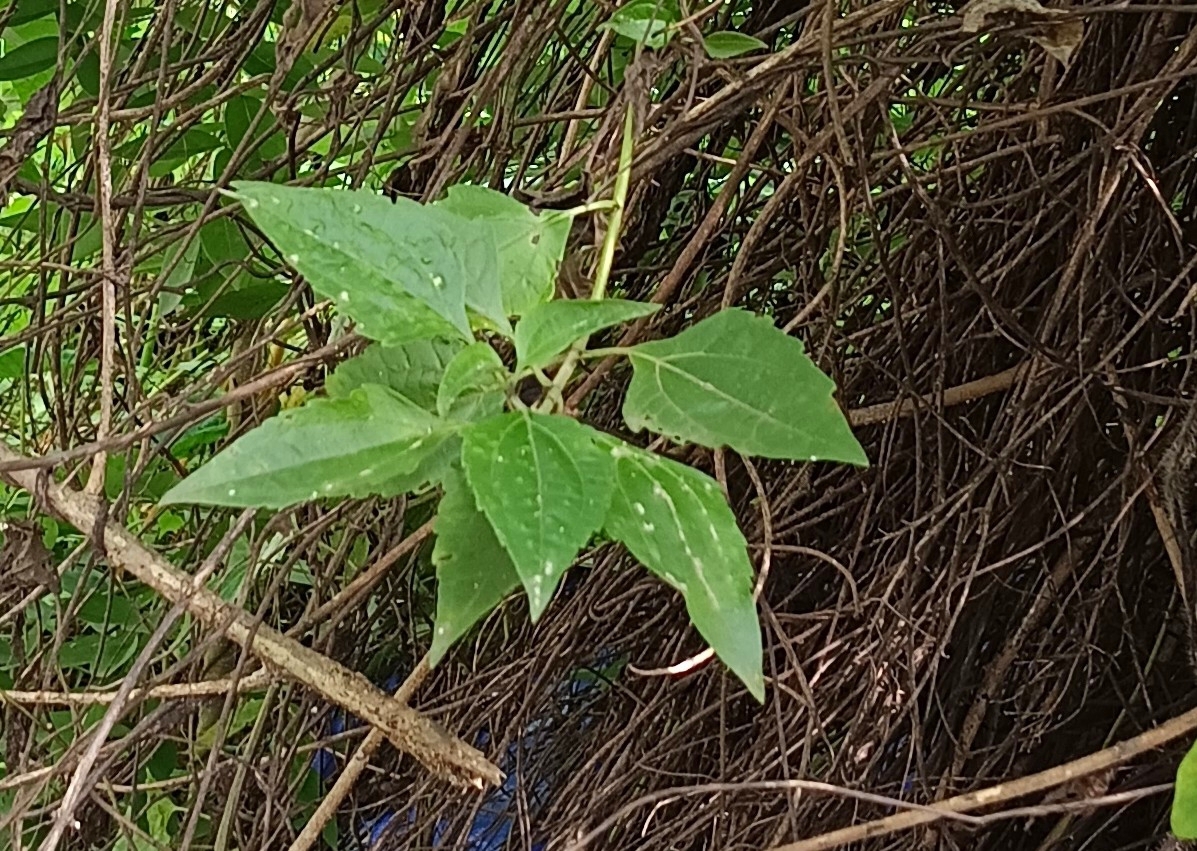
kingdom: Plantae
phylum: Tracheophyta
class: Magnoliopsida
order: Asterales
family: Asteraceae
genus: Chromolaena
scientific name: Chromolaena odorata
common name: Siamweed
